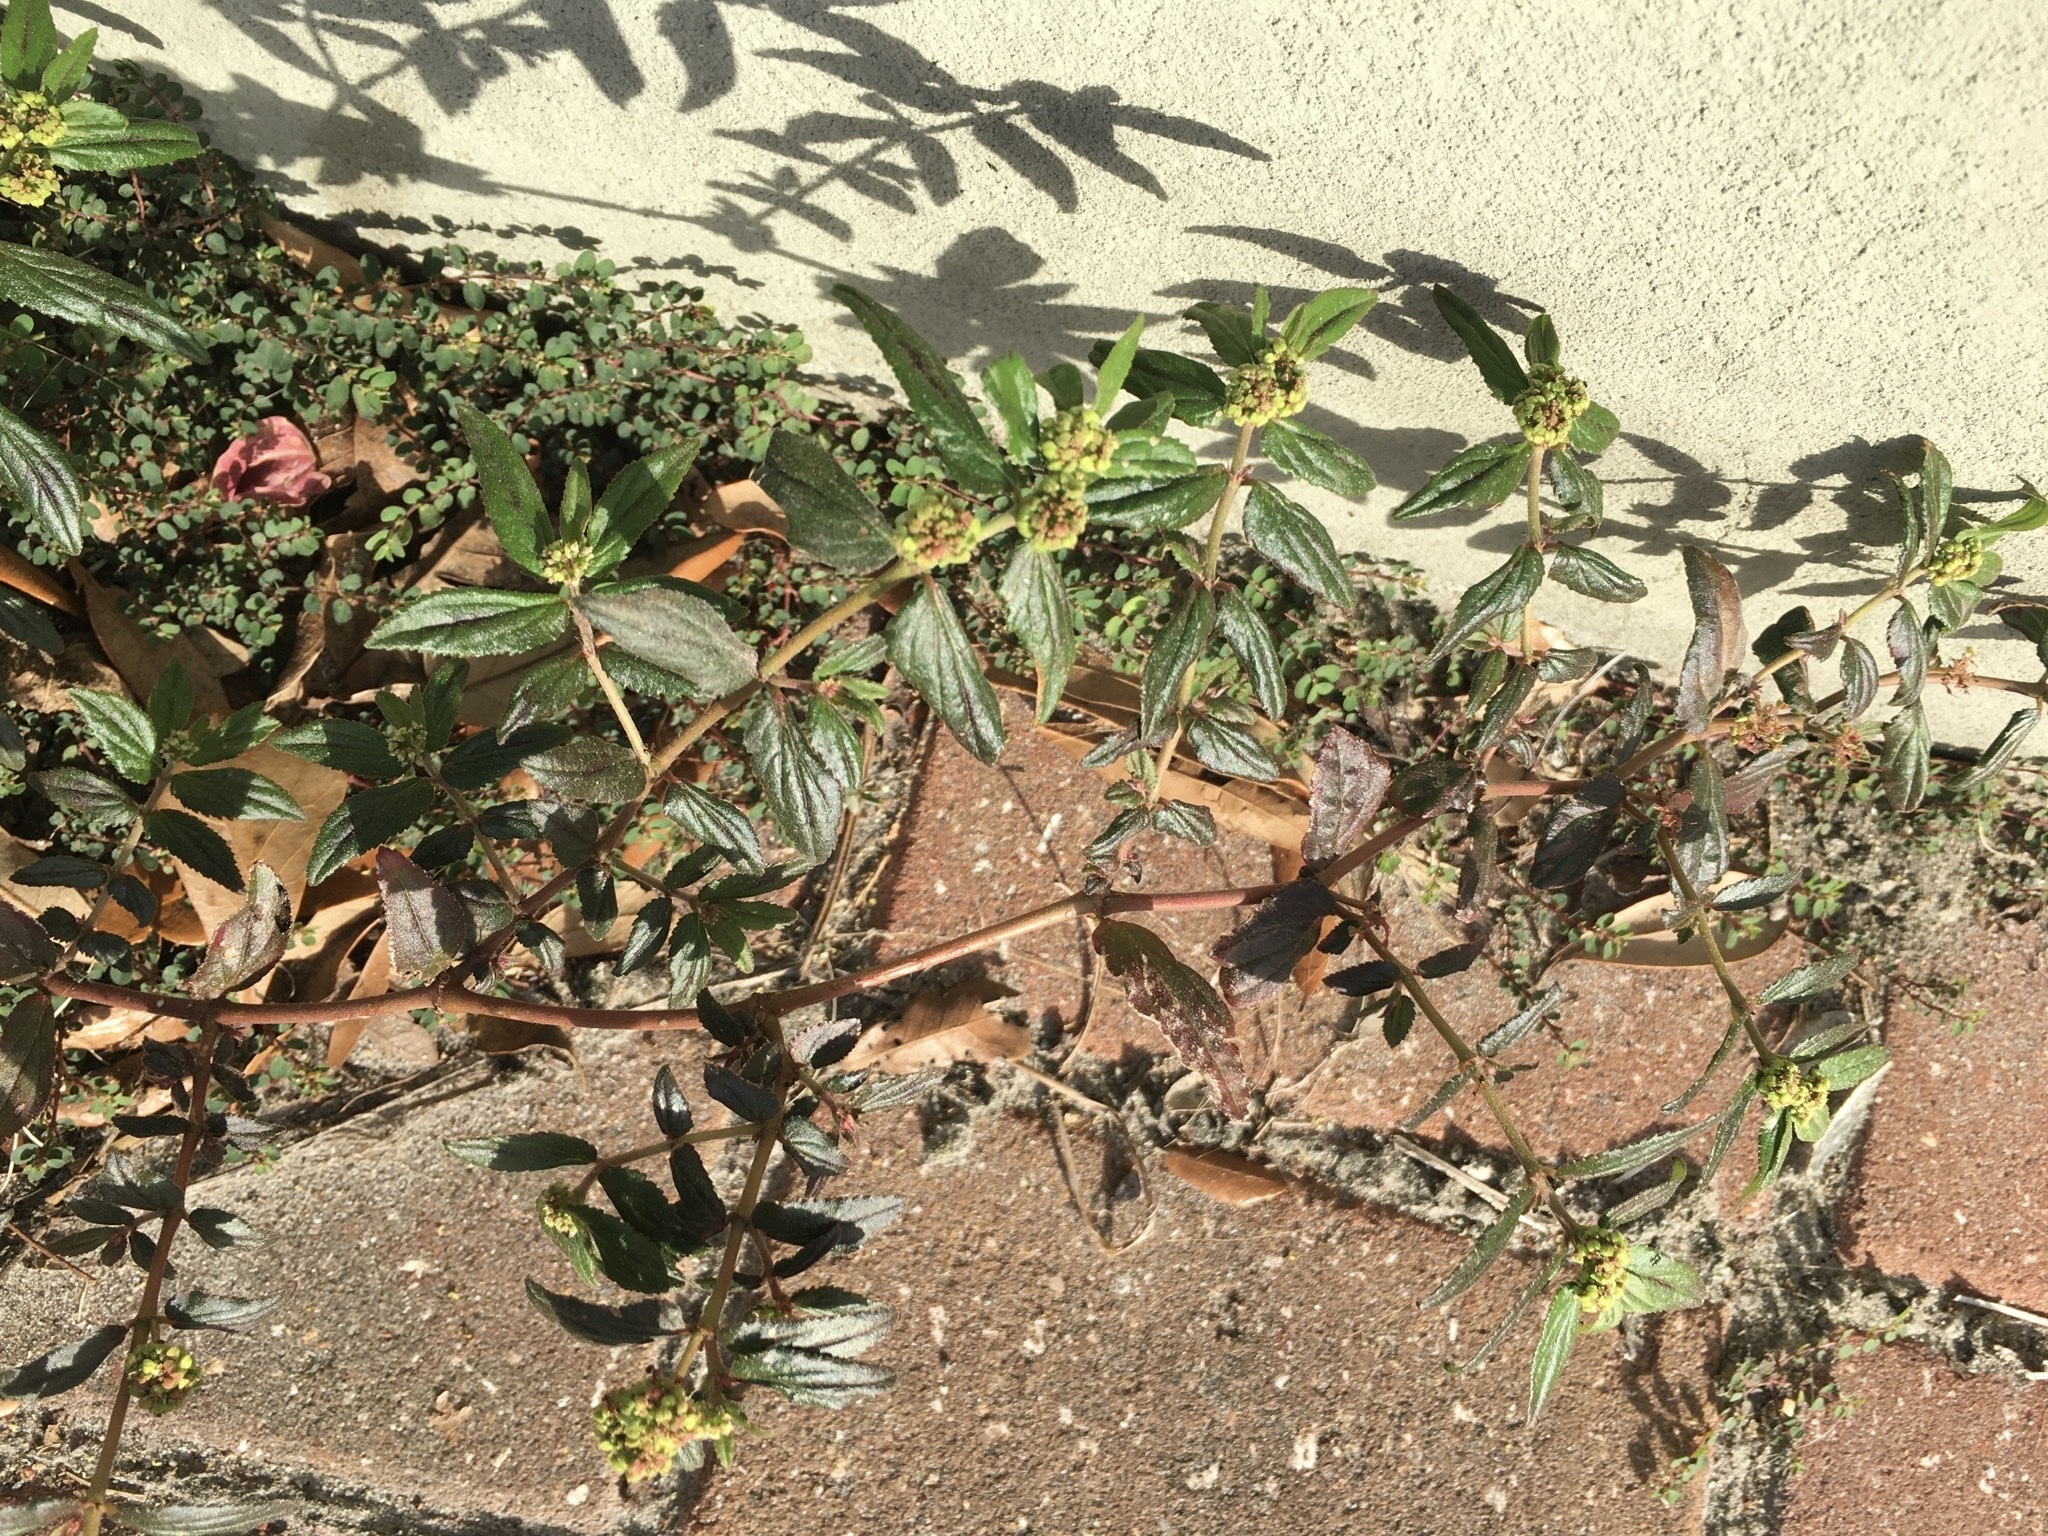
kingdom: Plantae
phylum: Tracheophyta
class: Magnoliopsida
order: Malpighiales
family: Euphorbiaceae
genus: Euphorbia
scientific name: Euphorbia hirta
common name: Pillpod sandmat
